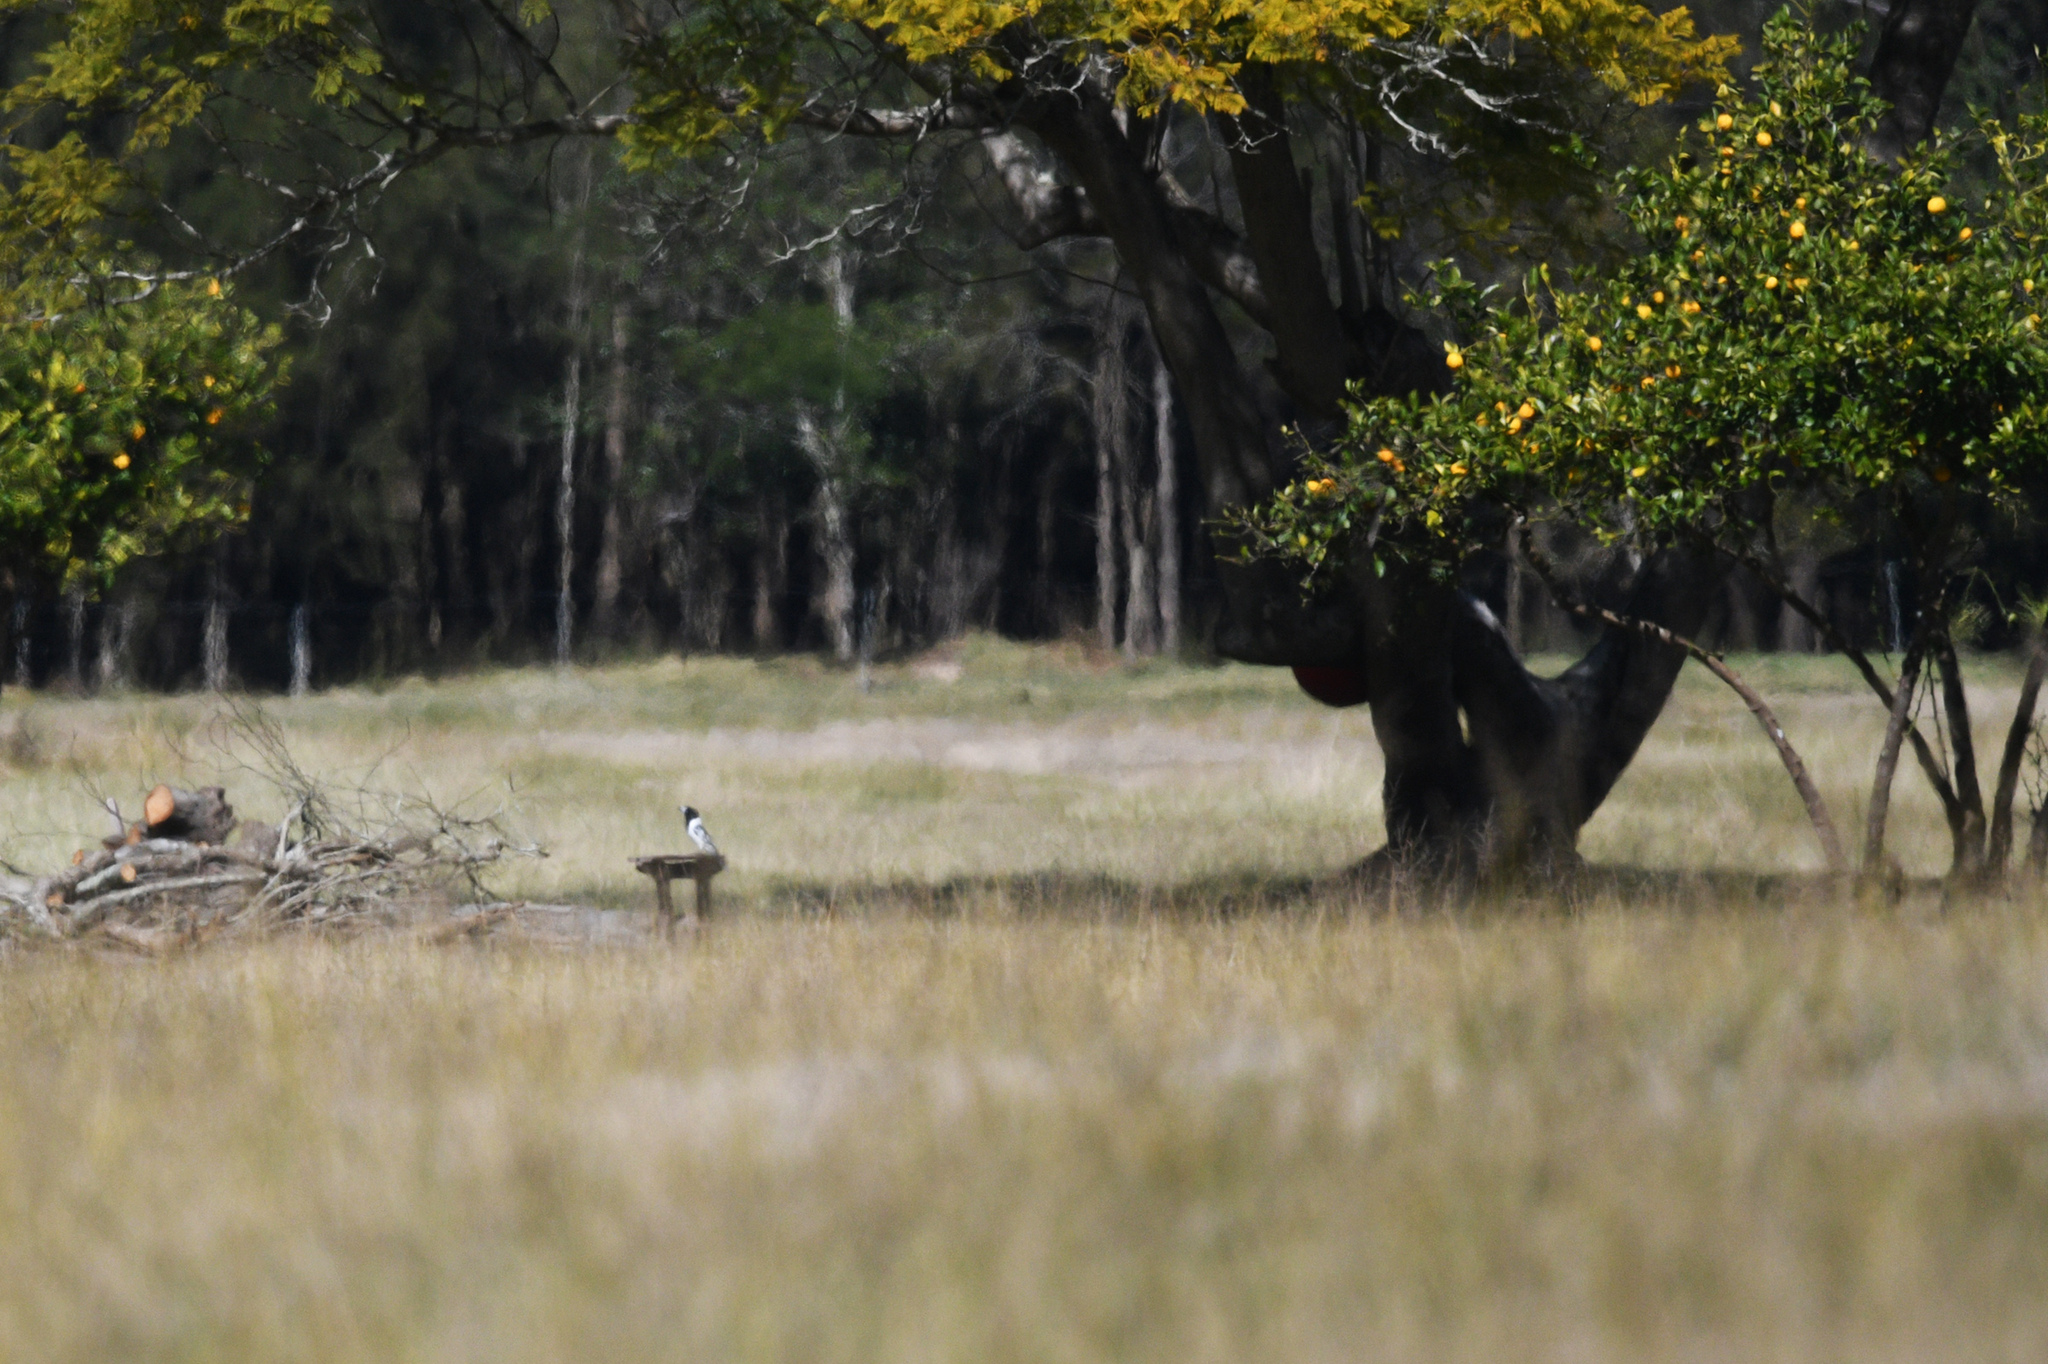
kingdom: Animalia
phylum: Chordata
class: Aves
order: Passeriformes
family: Cracticidae
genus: Cracticus
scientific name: Cracticus nigrogularis
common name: Pied butcherbird
